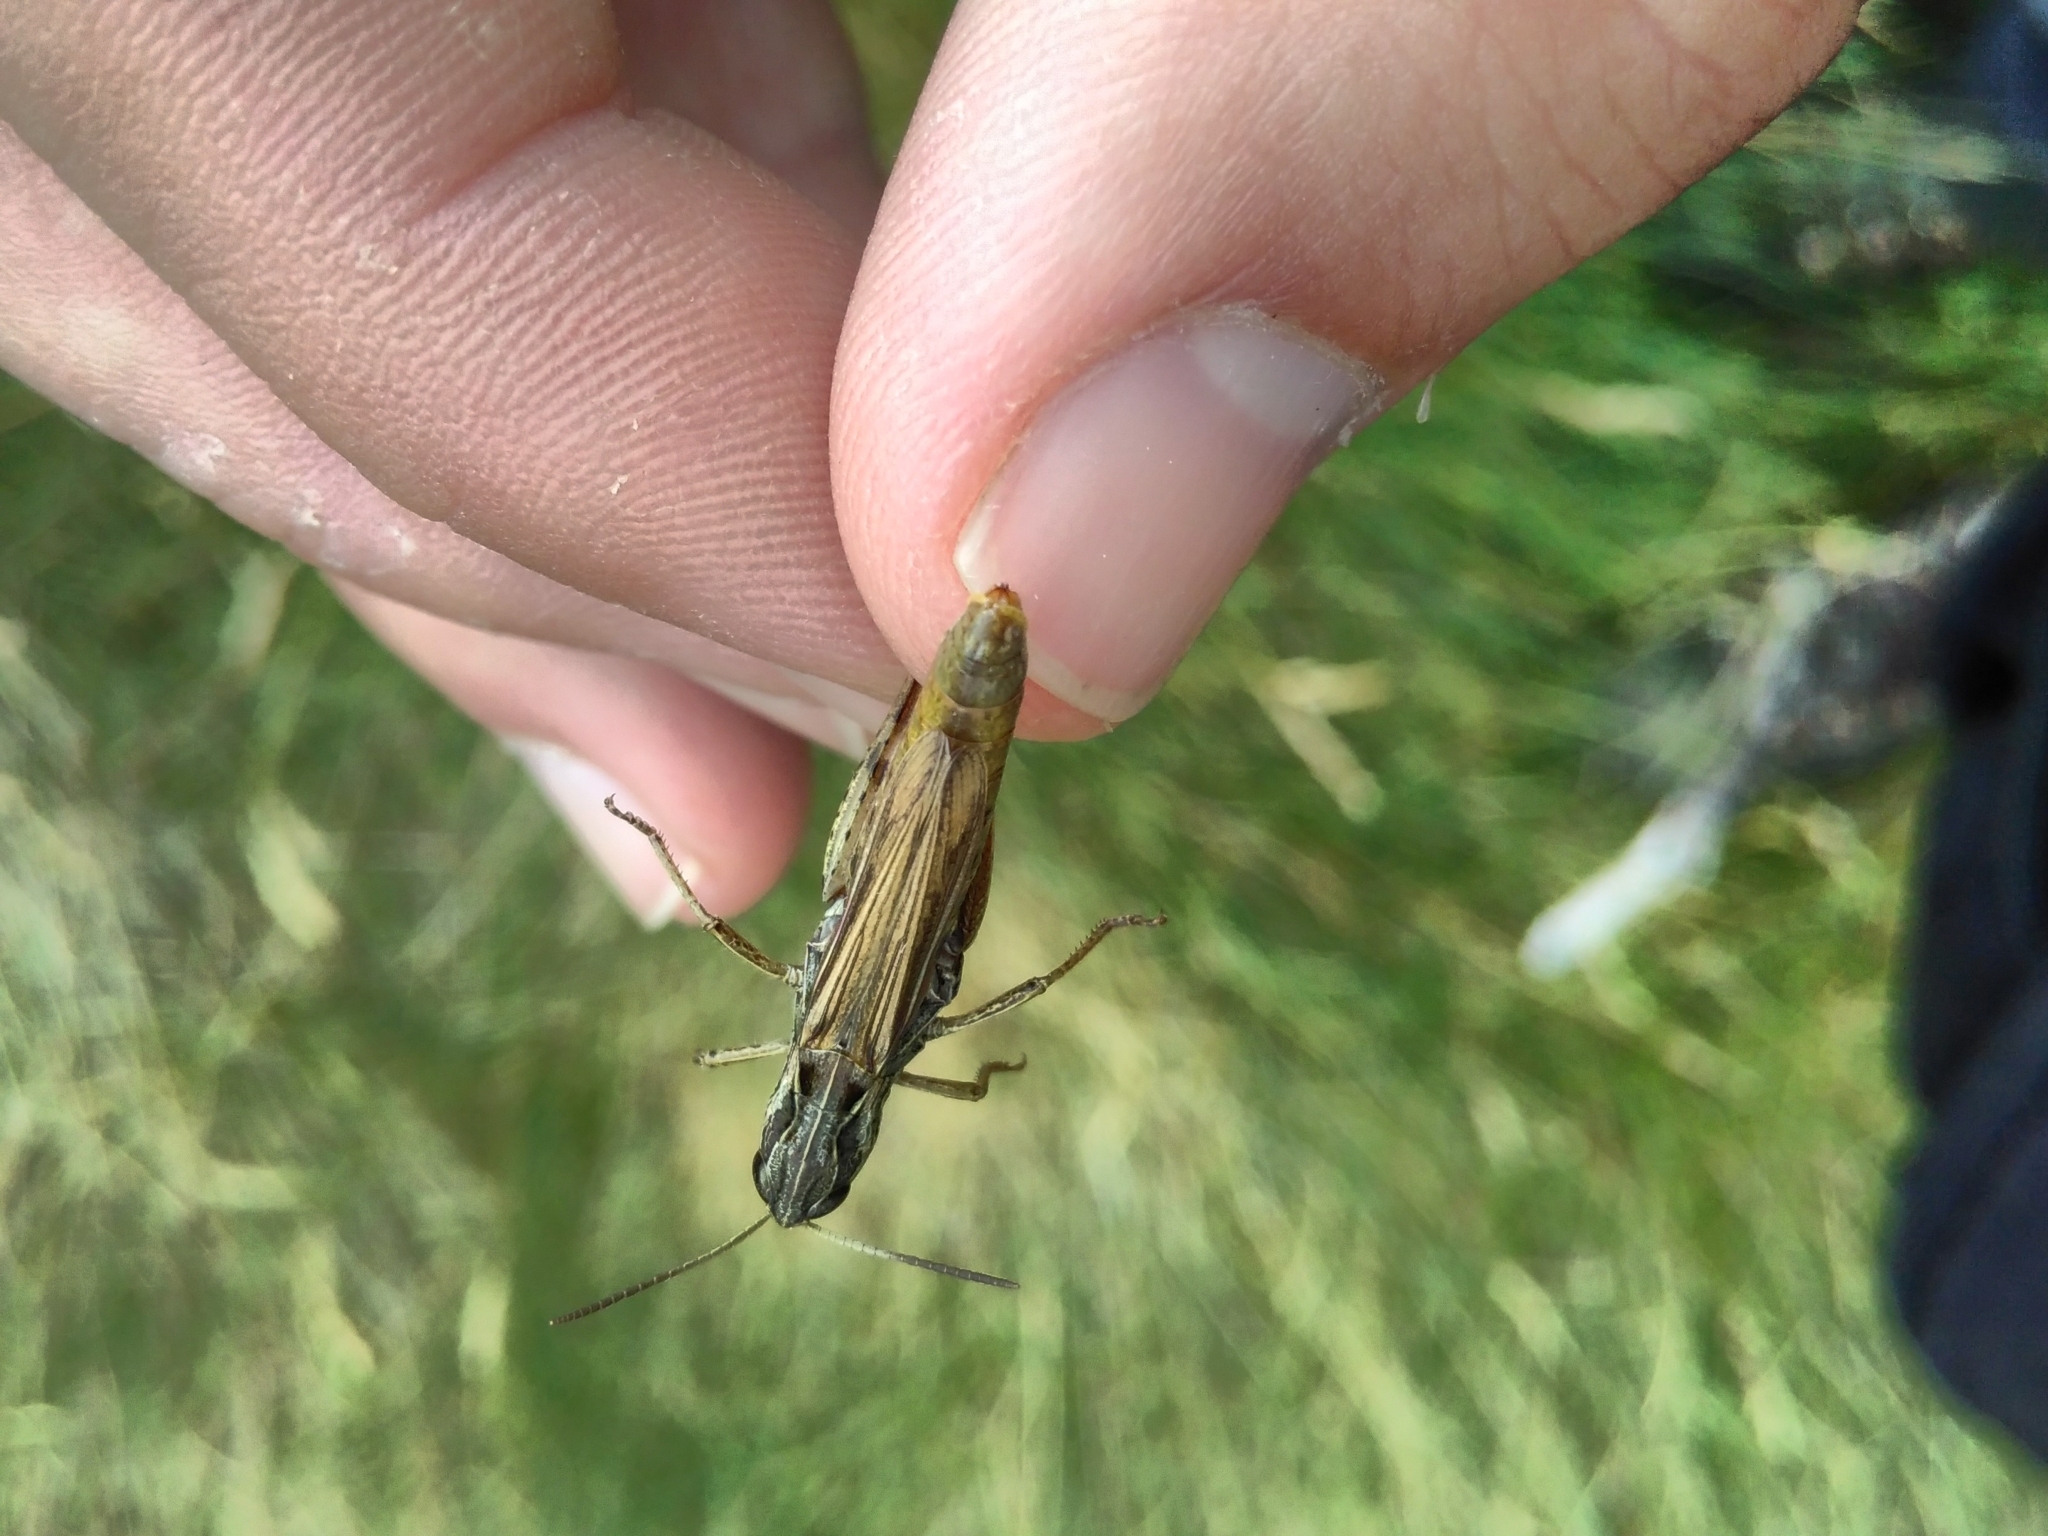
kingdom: Animalia
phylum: Arthropoda
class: Insecta
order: Orthoptera
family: Acrididae
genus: Chorthippus
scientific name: Chorthippus saulcyi
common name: French grasshopper
